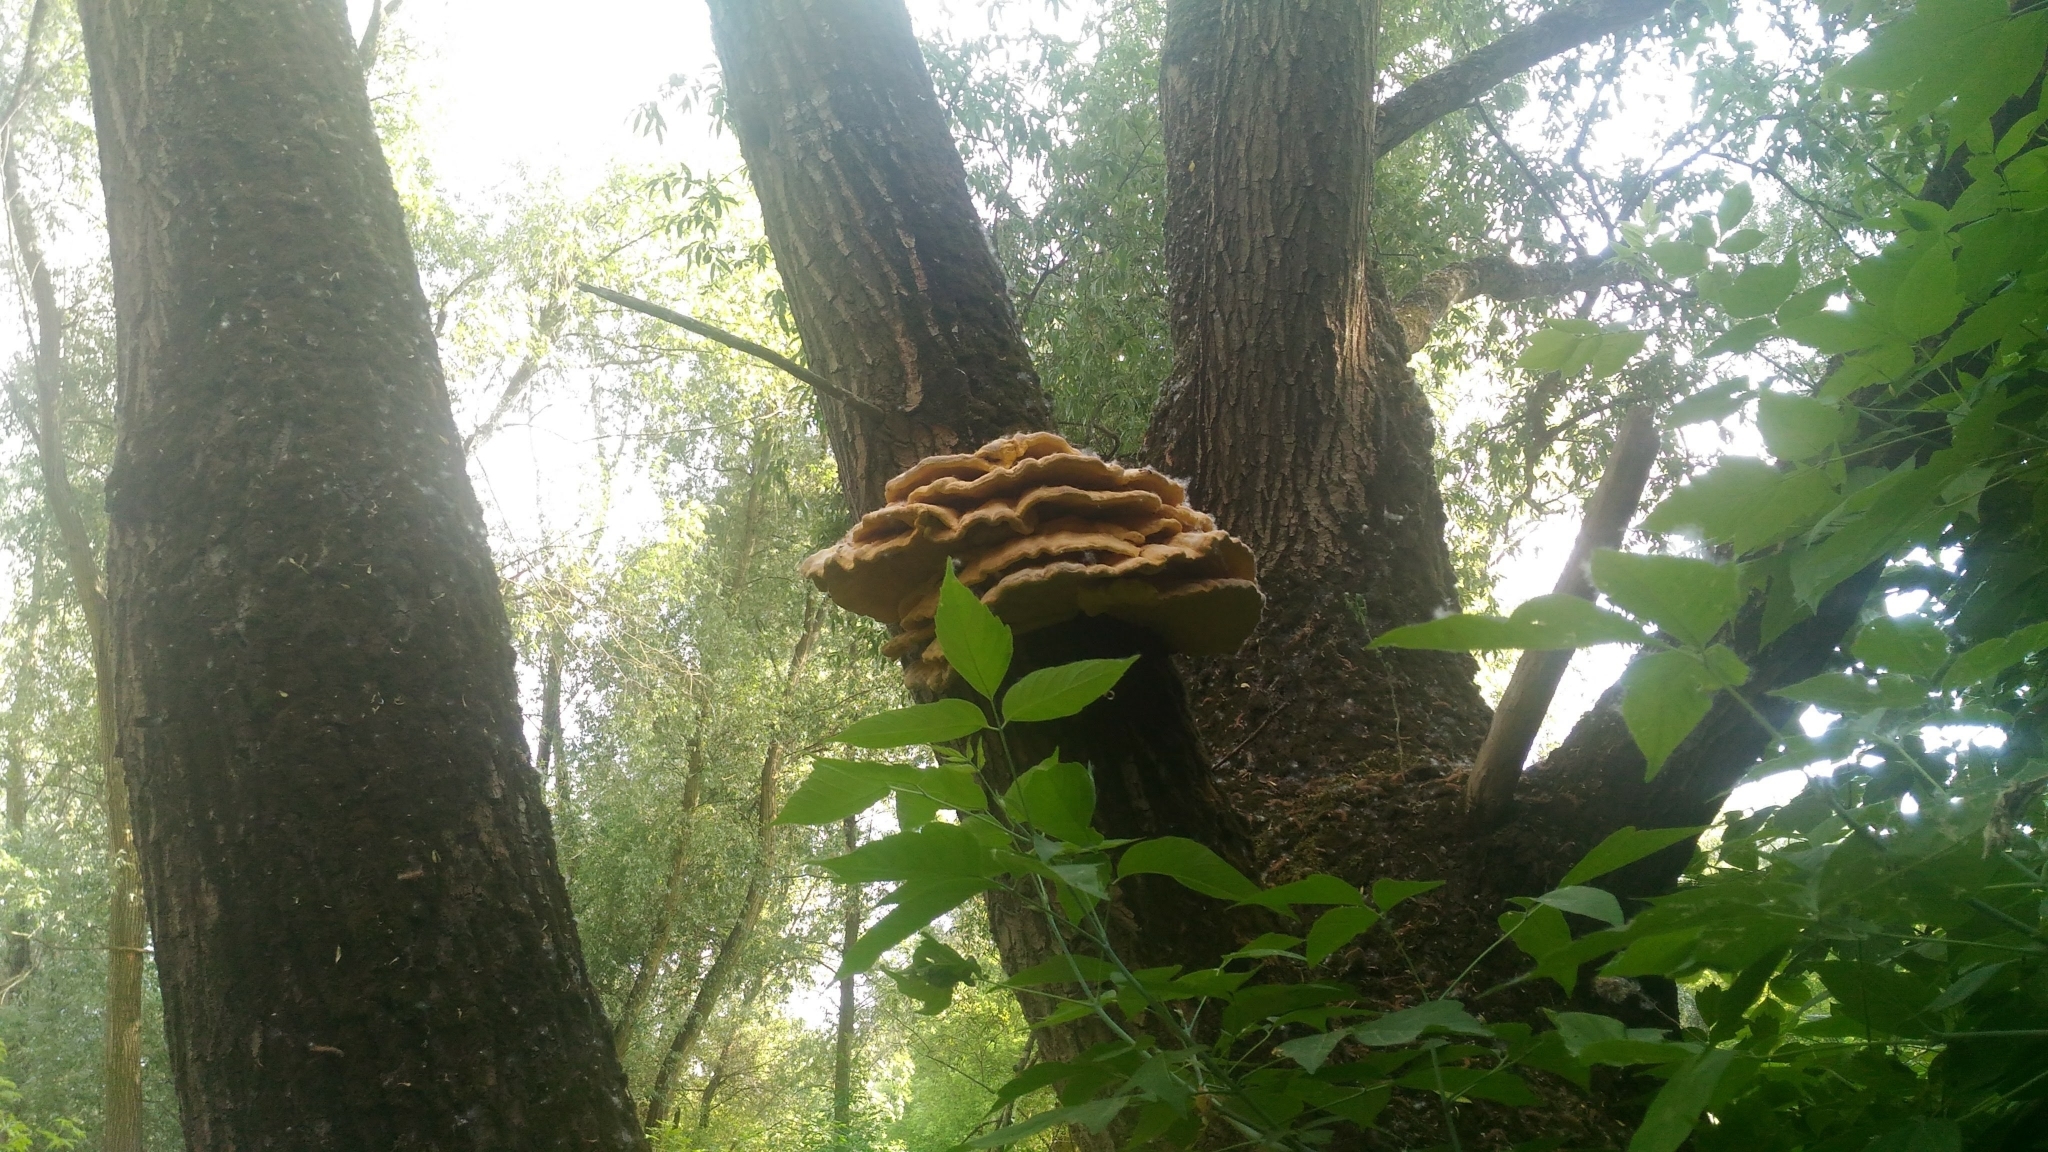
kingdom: Fungi
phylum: Basidiomycota
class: Agaricomycetes
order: Polyporales
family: Laetiporaceae
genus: Laetiporus
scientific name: Laetiporus sulphureus
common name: Chicken of the woods
